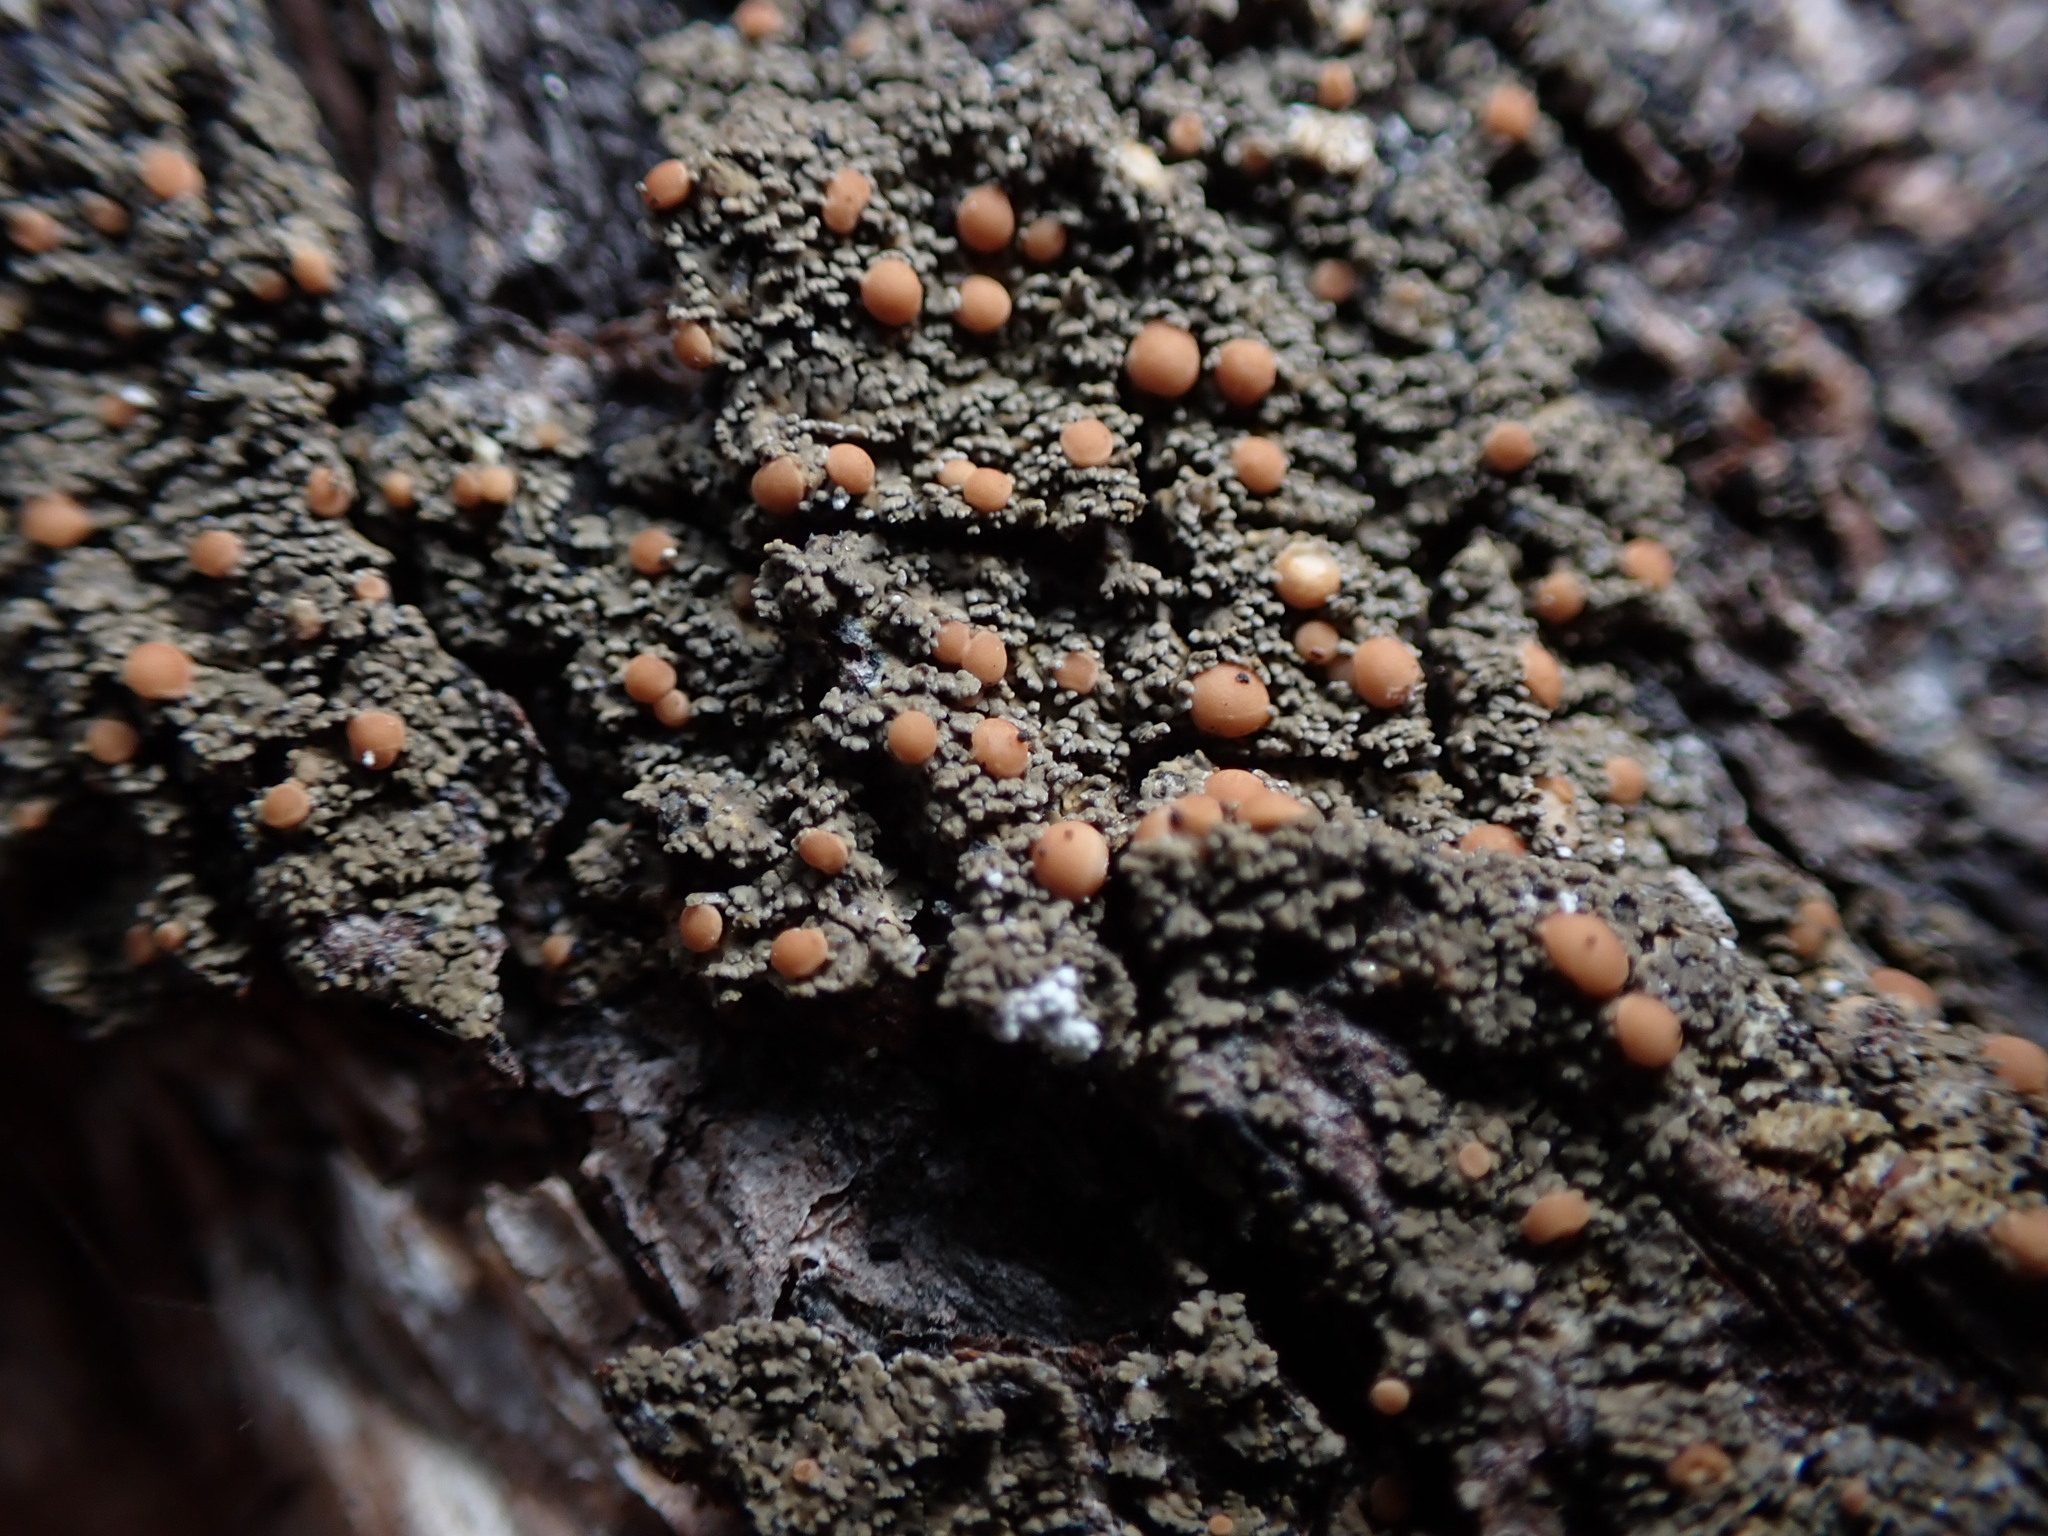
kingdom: Fungi
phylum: Ascomycota
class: Lecanoromycetes
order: Peltigerales
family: Vahliellaceae
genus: Vahliella
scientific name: Vahliella saubinetii
